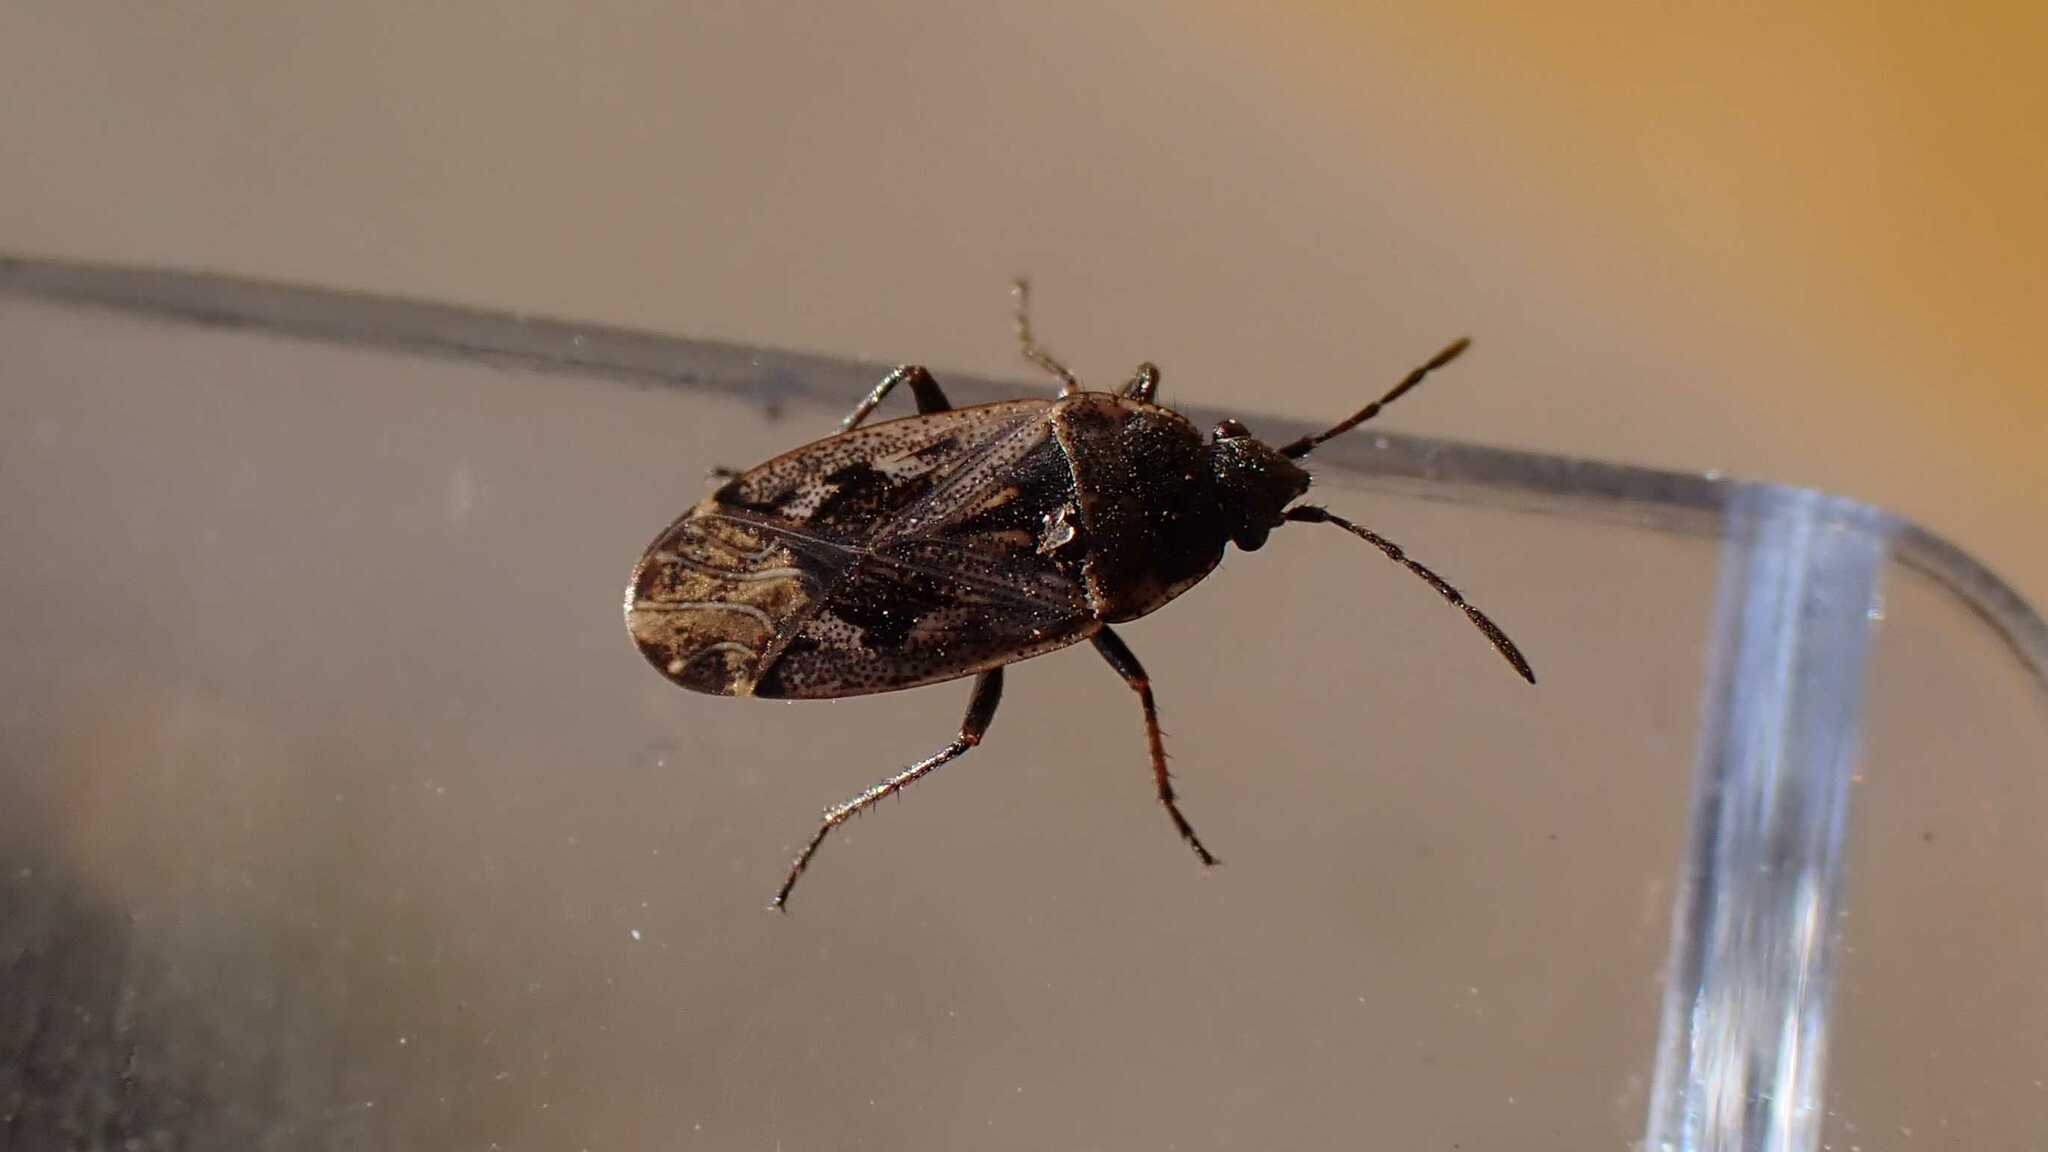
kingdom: Animalia
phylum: Arthropoda
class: Insecta
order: Hemiptera
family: Rhyparochromidae
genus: Sphragisticus
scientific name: Sphragisticus nebulosus
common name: Dirt-colored seed bug
